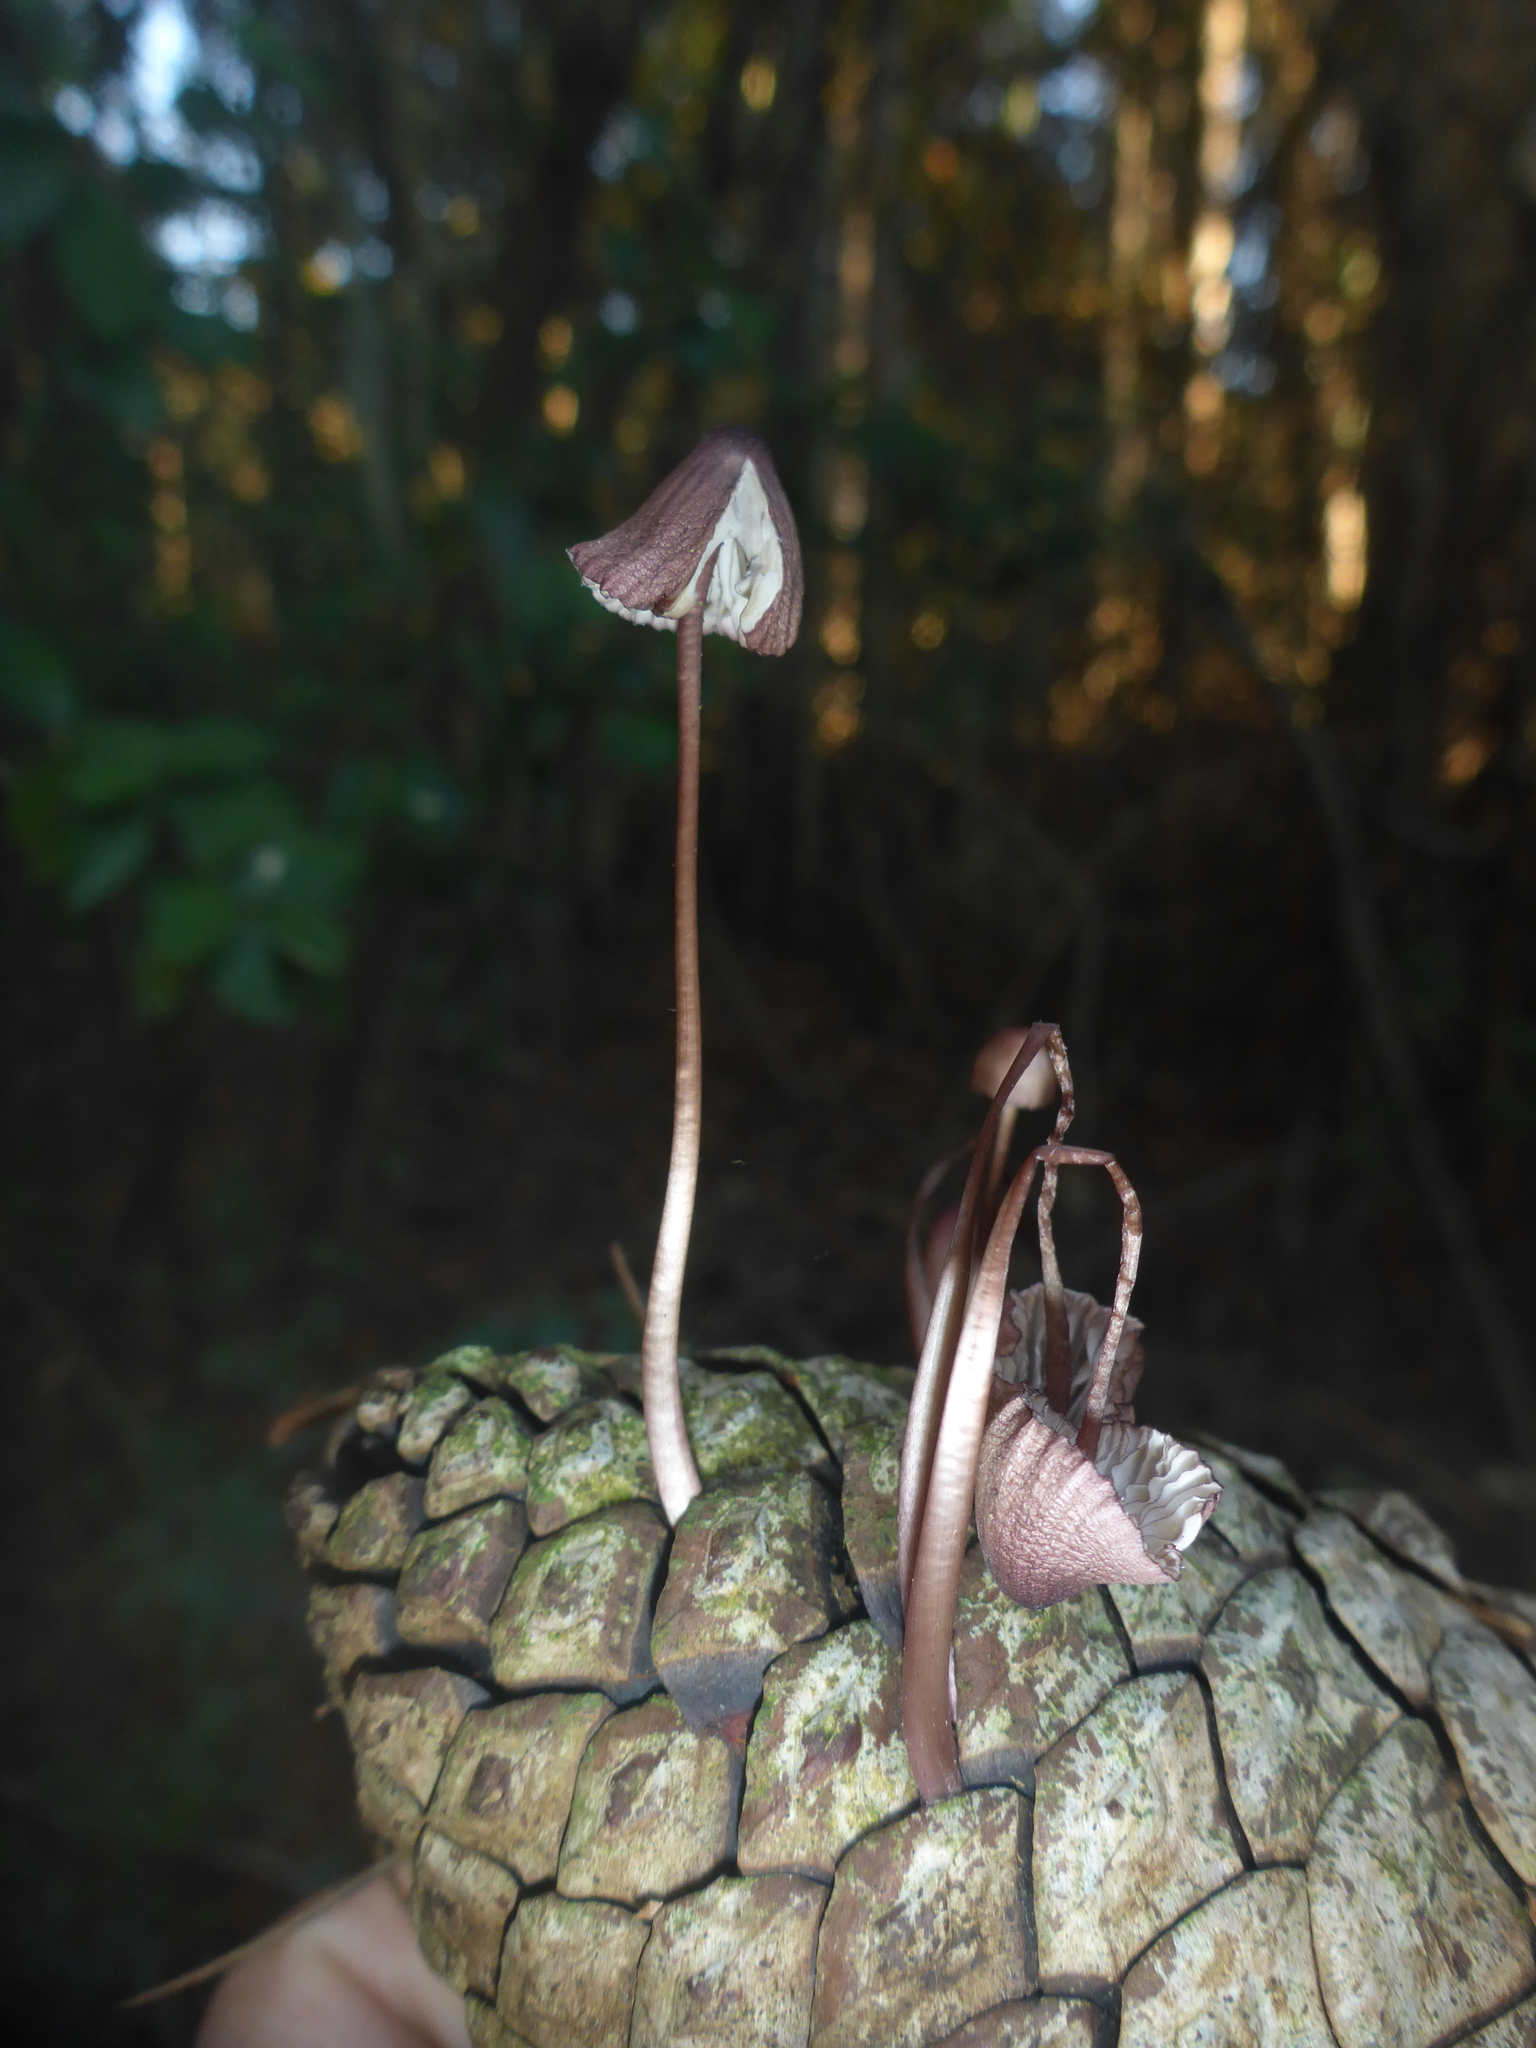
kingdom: Fungi
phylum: Basidiomycota
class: Agaricomycetes
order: Agaricales
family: Mycenaceae
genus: Mycena
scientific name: Mycena purpureofusca
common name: Purple edge bonnet
